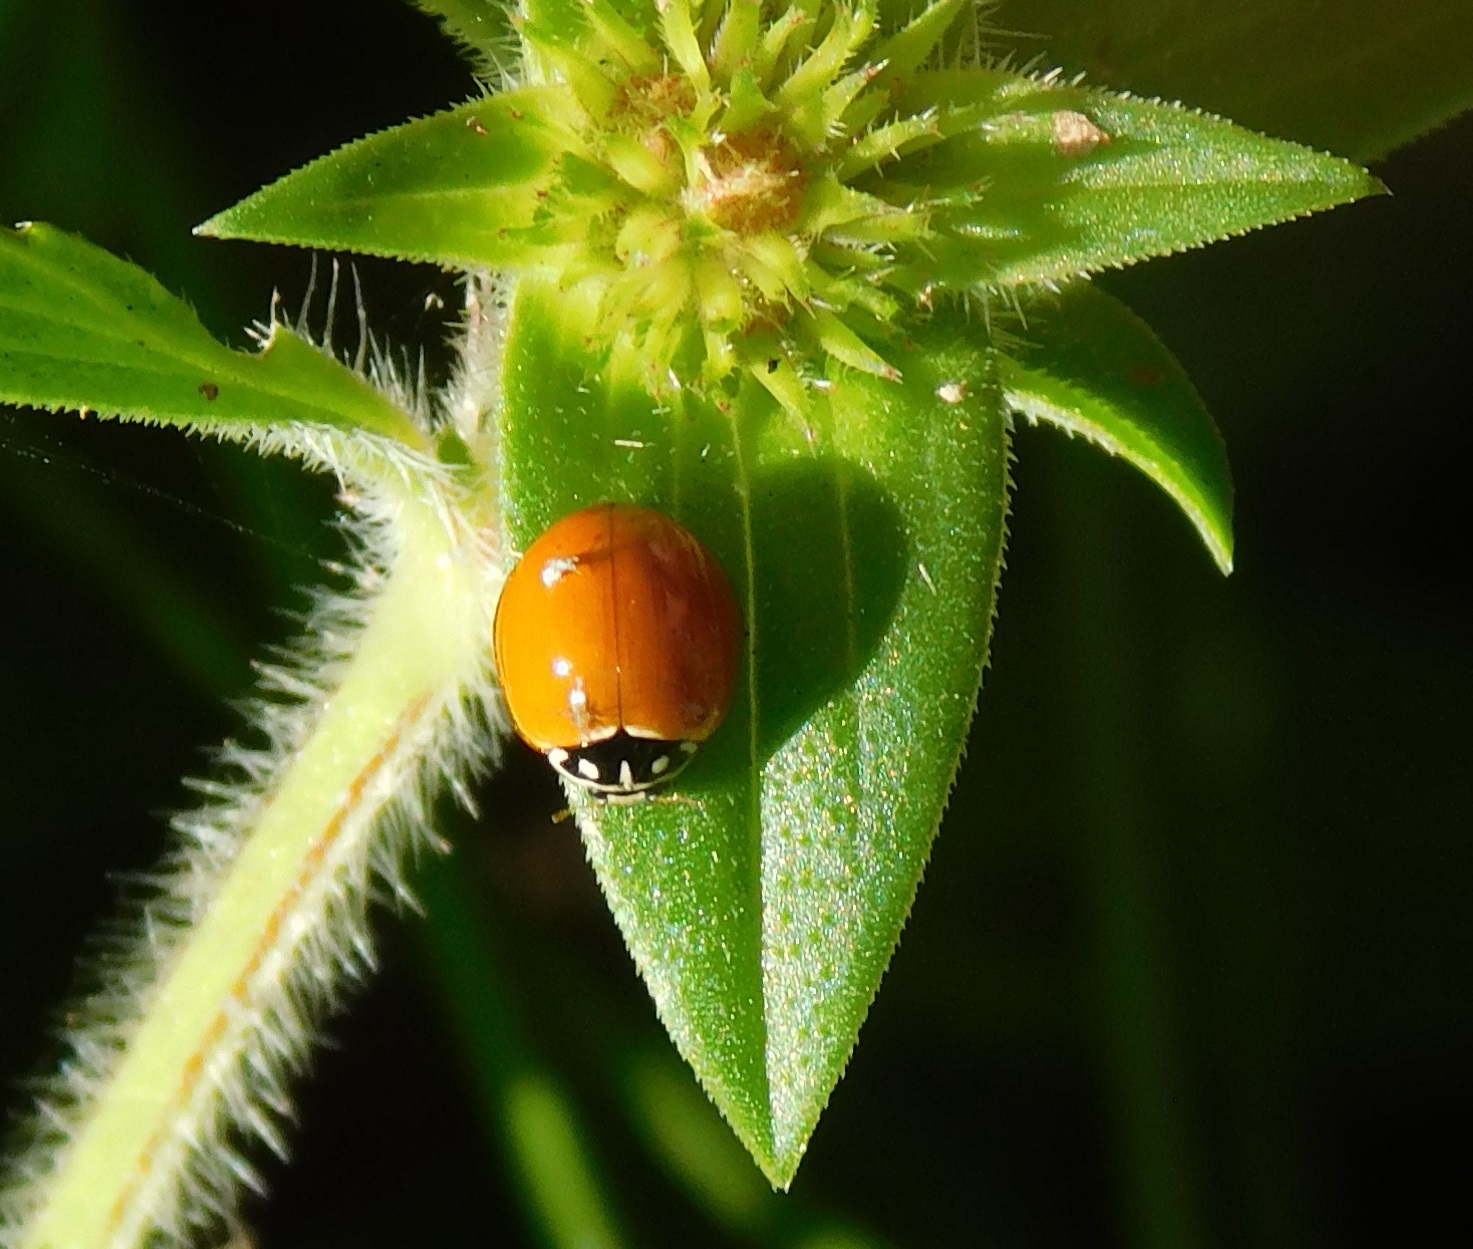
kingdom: Animalia
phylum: Arthropoda
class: Insecta
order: Coleoptera
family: Coccinellidae
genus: Cycloneda
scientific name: Cycloneda sanguinea
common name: Ladybird beetle
